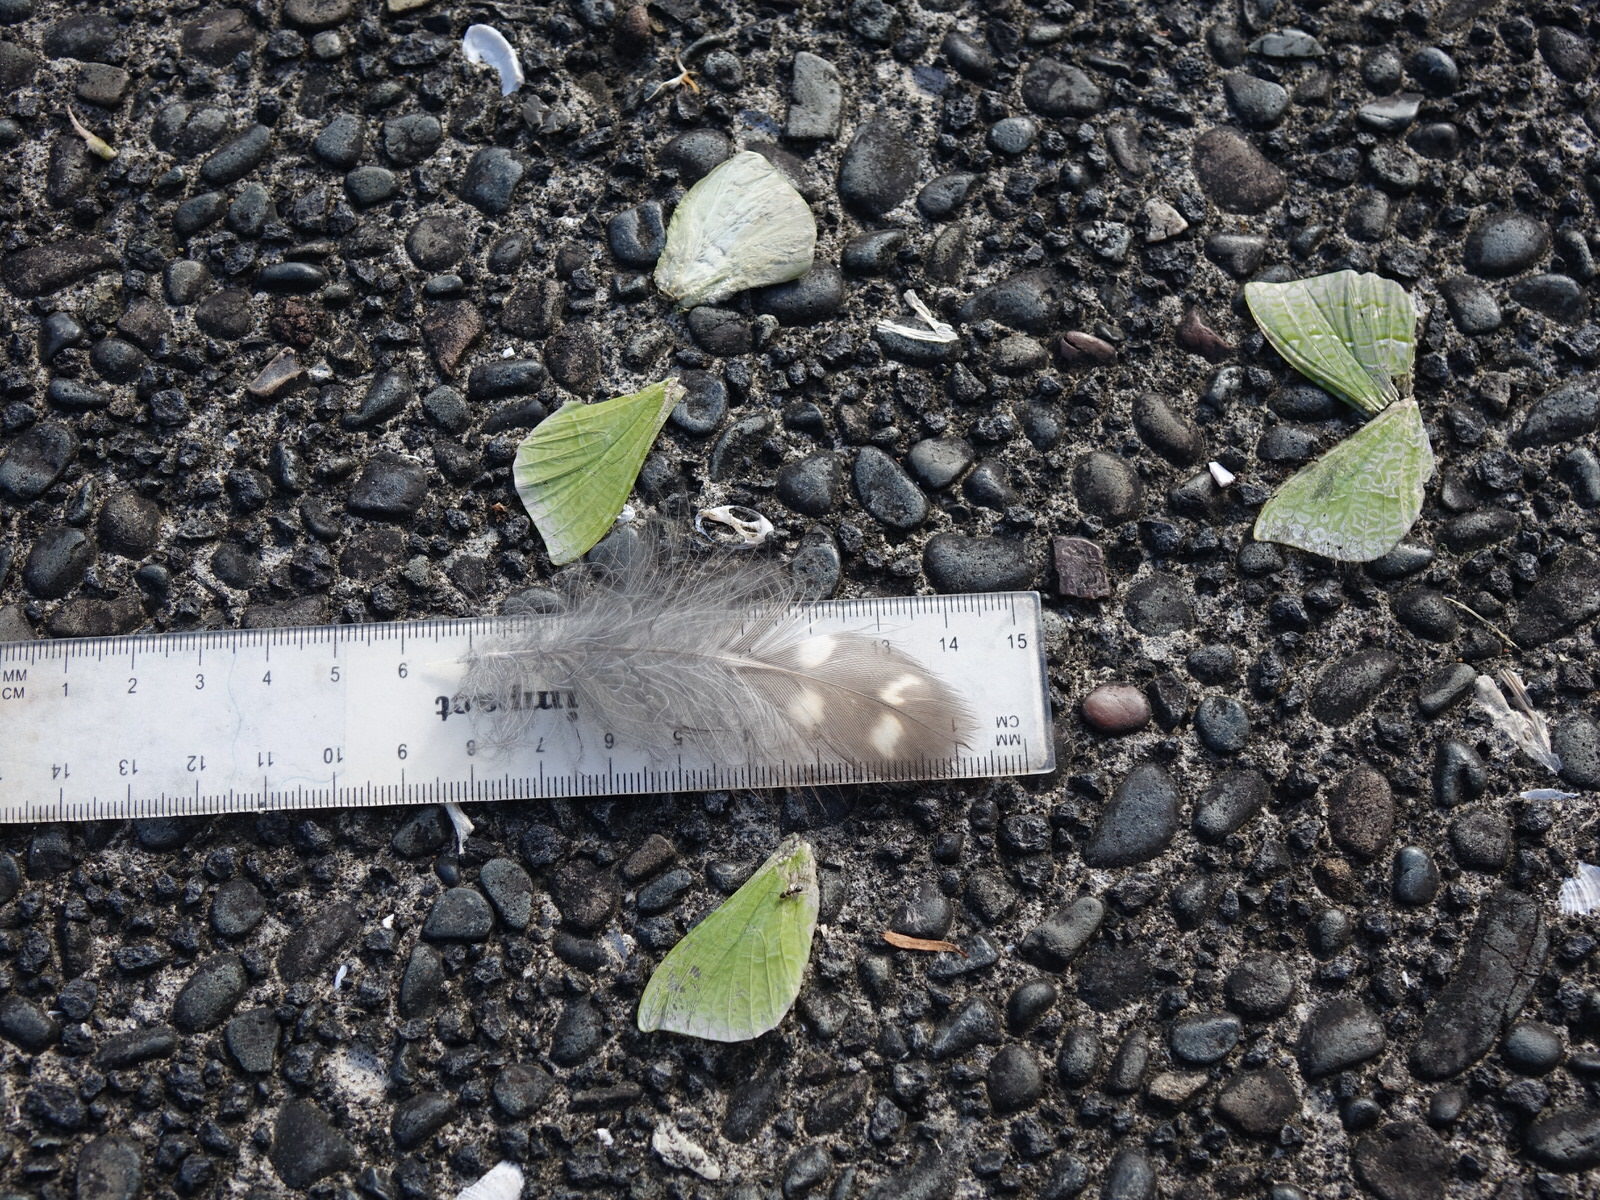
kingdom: Animalia
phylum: Chordata
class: Aves
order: Strigiformes
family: Strigidae
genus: Ninox
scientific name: Ninox novaeseelandiae
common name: Morepork
